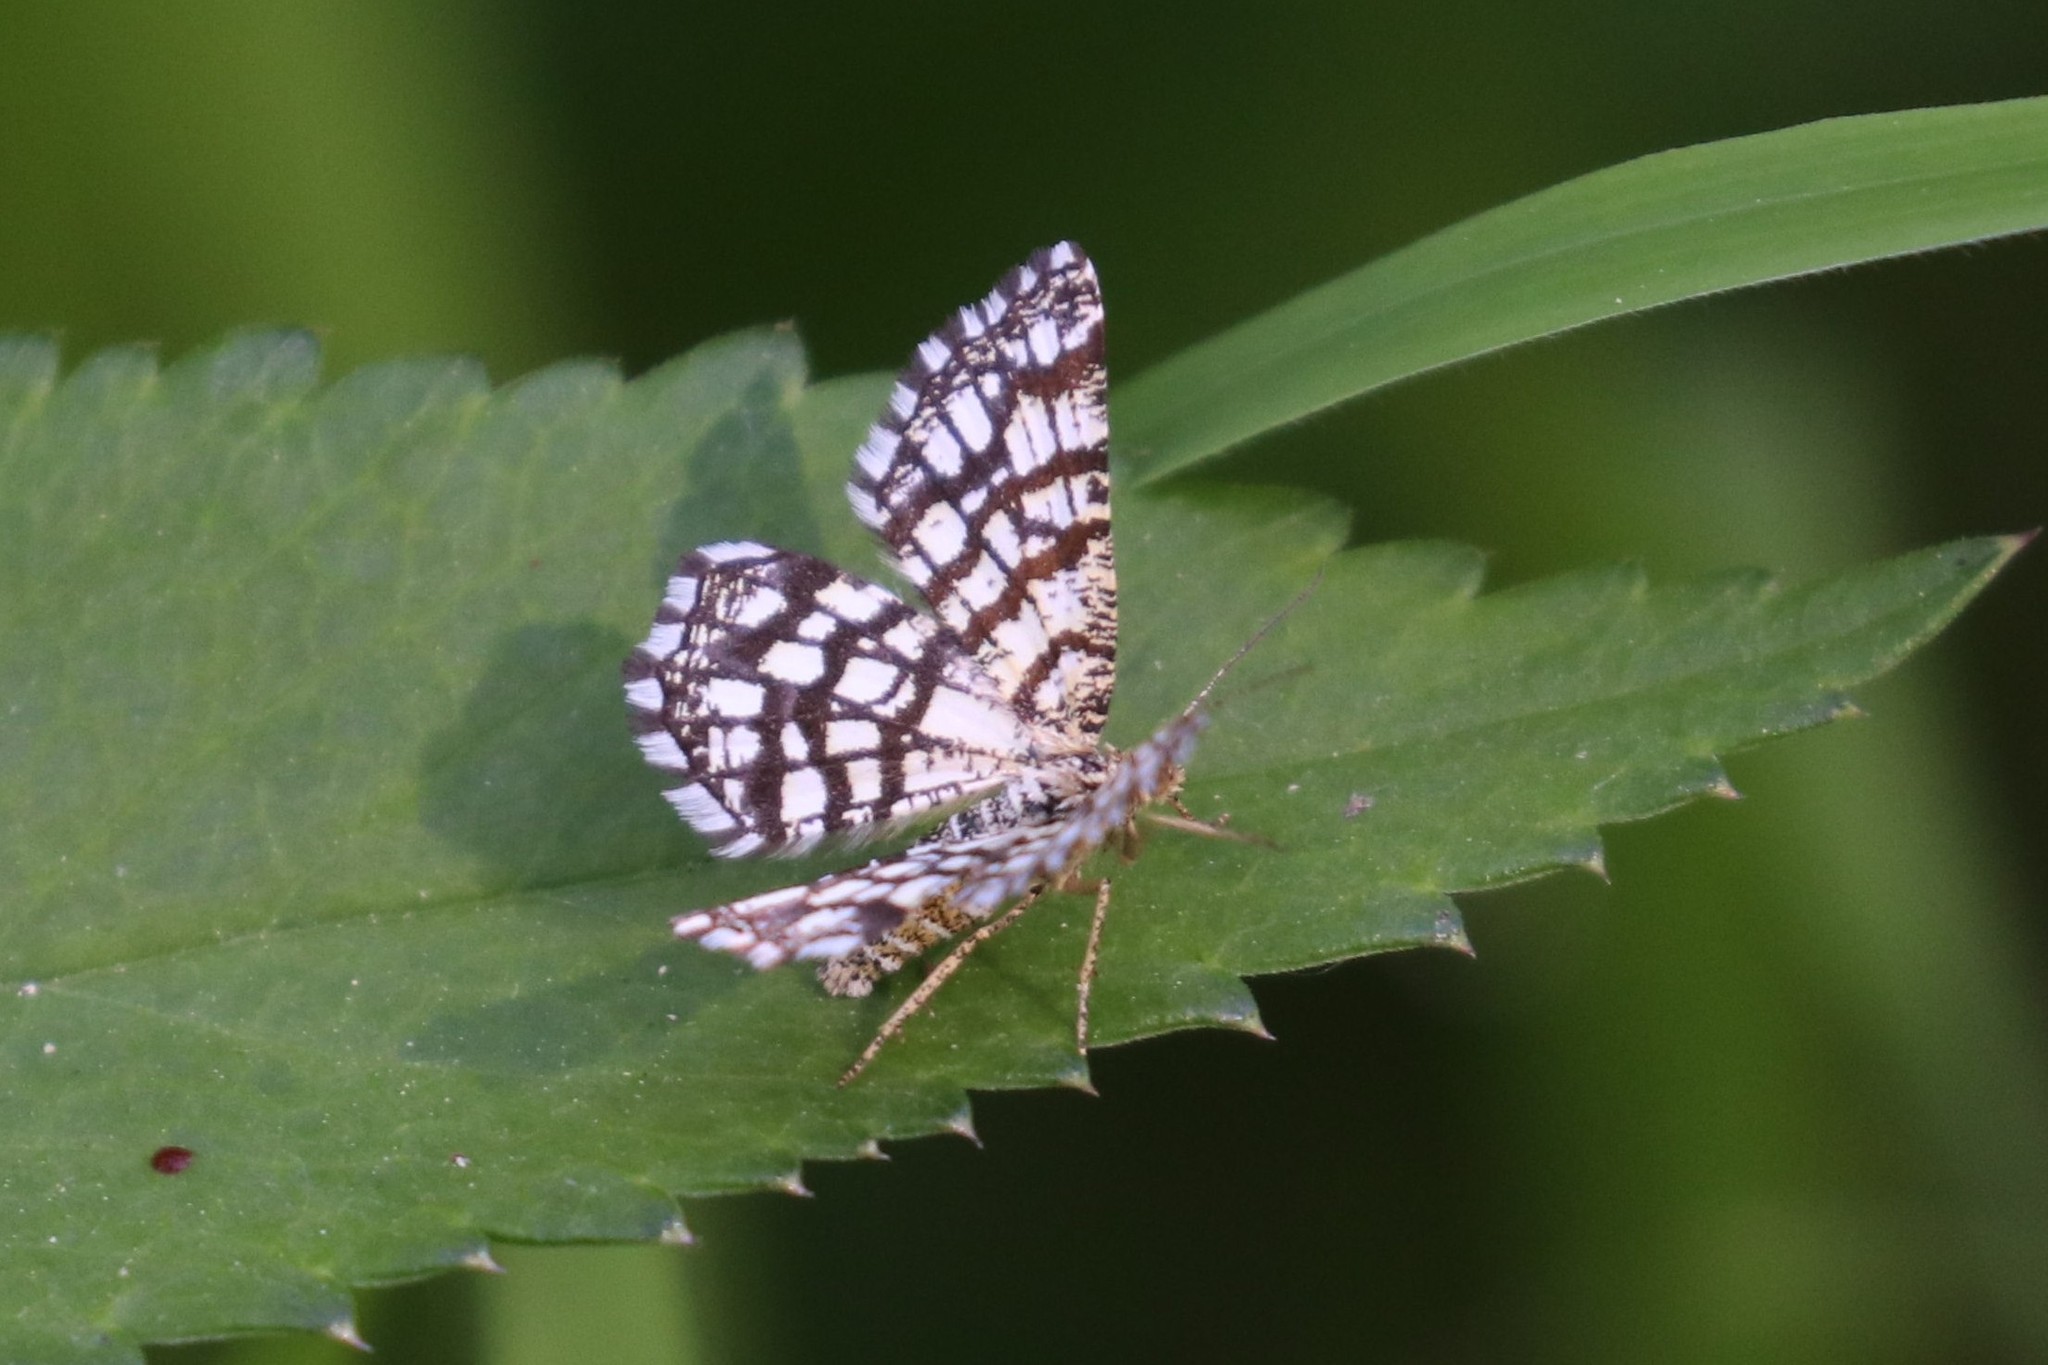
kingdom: Animalia
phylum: Arthropoda
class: Insecta
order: Lepidoptera
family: Geometridae
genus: Chiasmia
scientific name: Chiasmia clathrata
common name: Latticed heath
